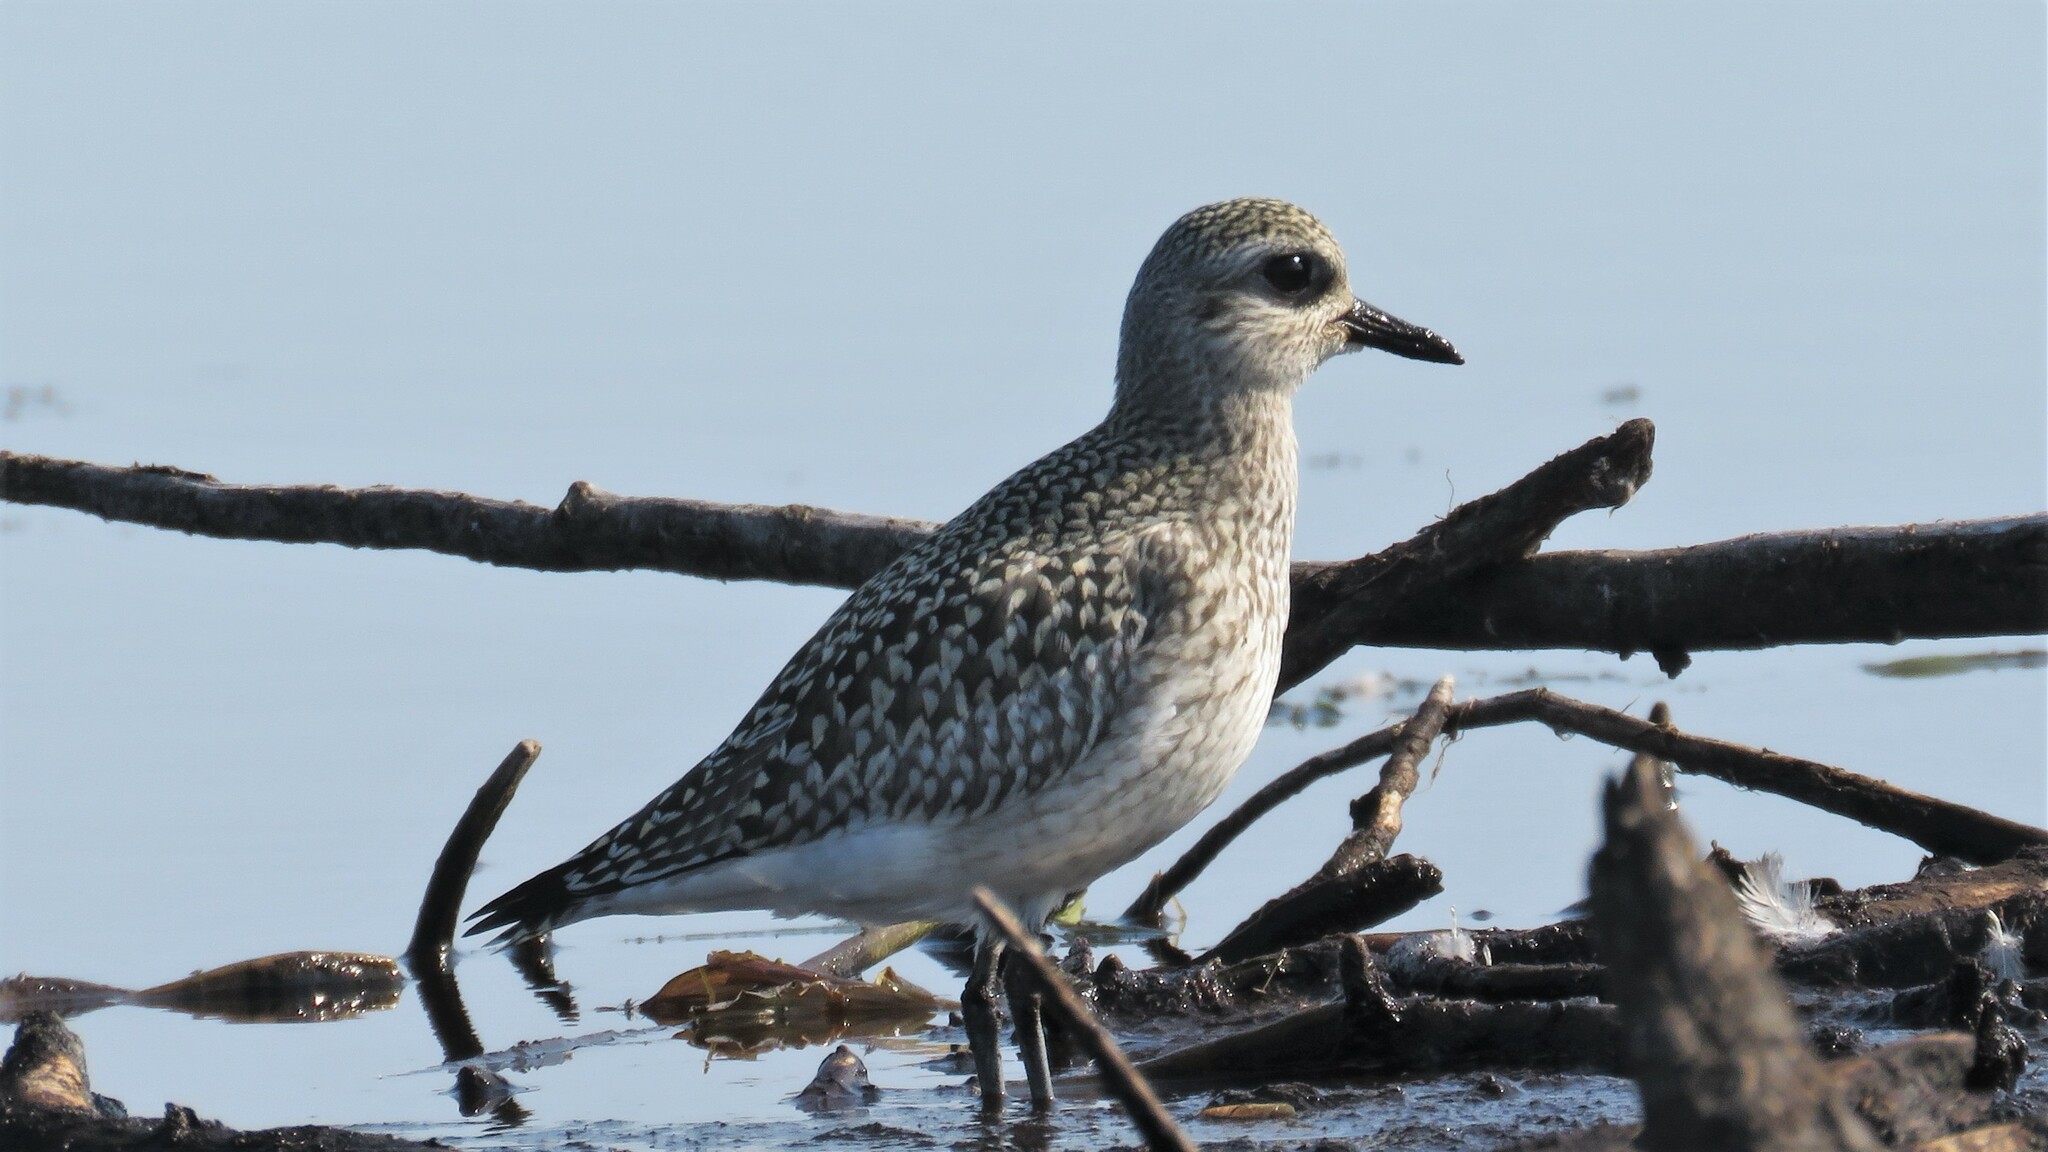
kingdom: Animalia
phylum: Chordata
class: Aves
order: Charadriiformes
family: Charadriidae
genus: Pluvialis
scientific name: Pluvialis squatarola
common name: Grey plover
